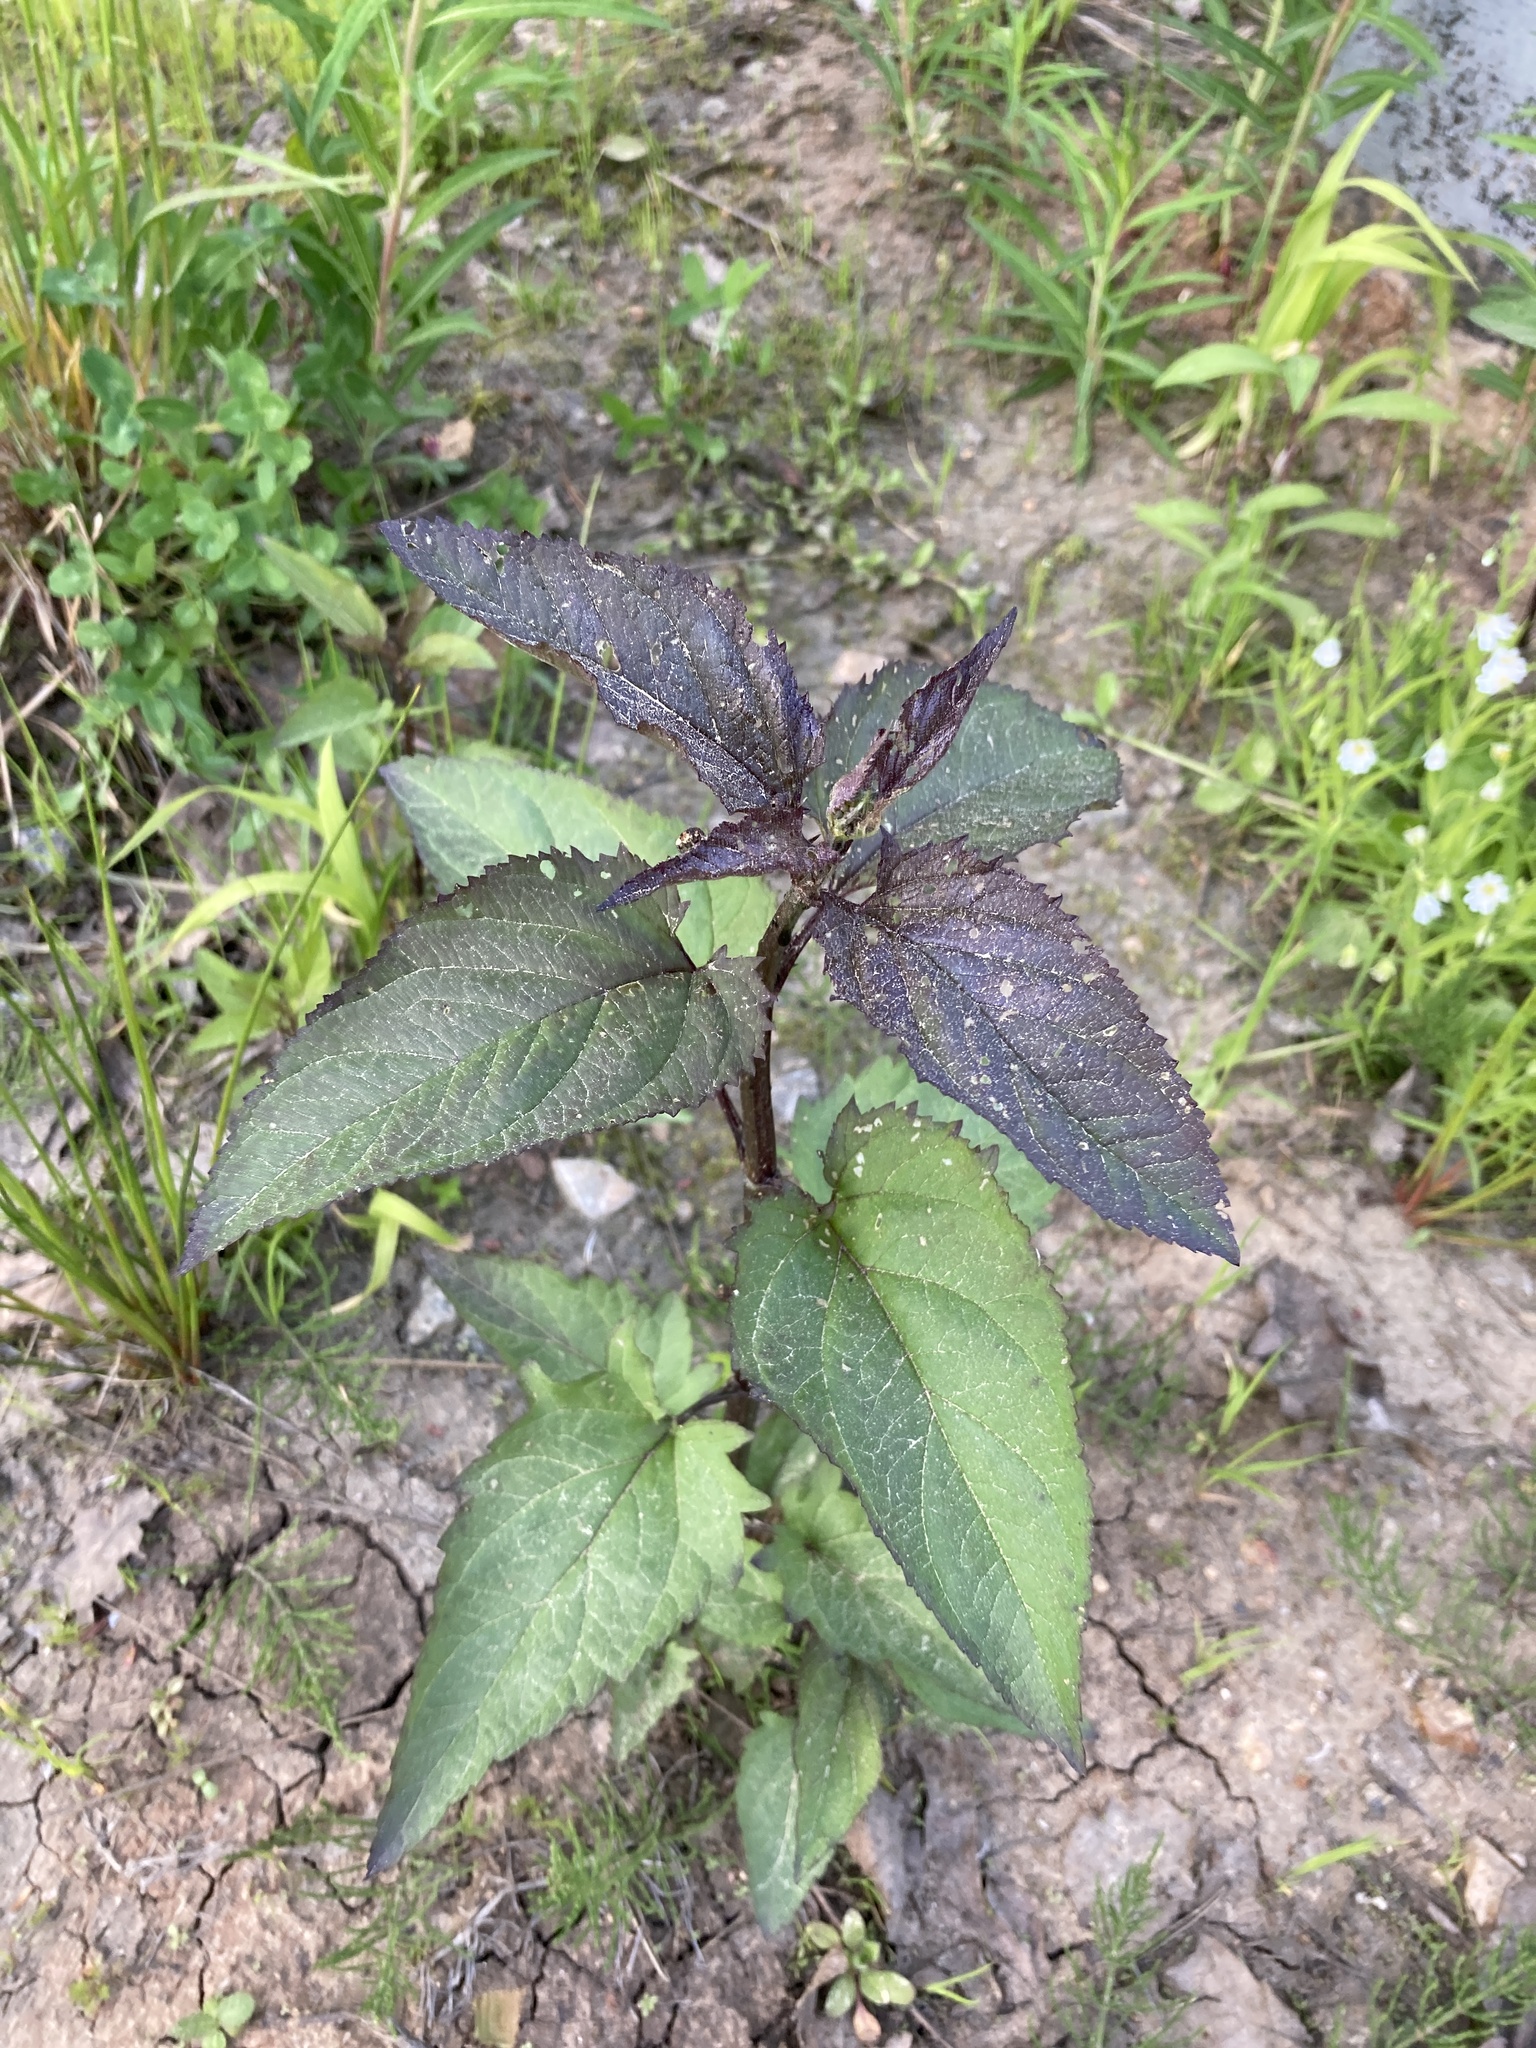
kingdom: Plantae
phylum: Tracheophyta
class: Magnoliopsida
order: Lamiales
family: Scrophulariaceae
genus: Scrophularia
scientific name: Scrophularia nodosa
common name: Common figwort
